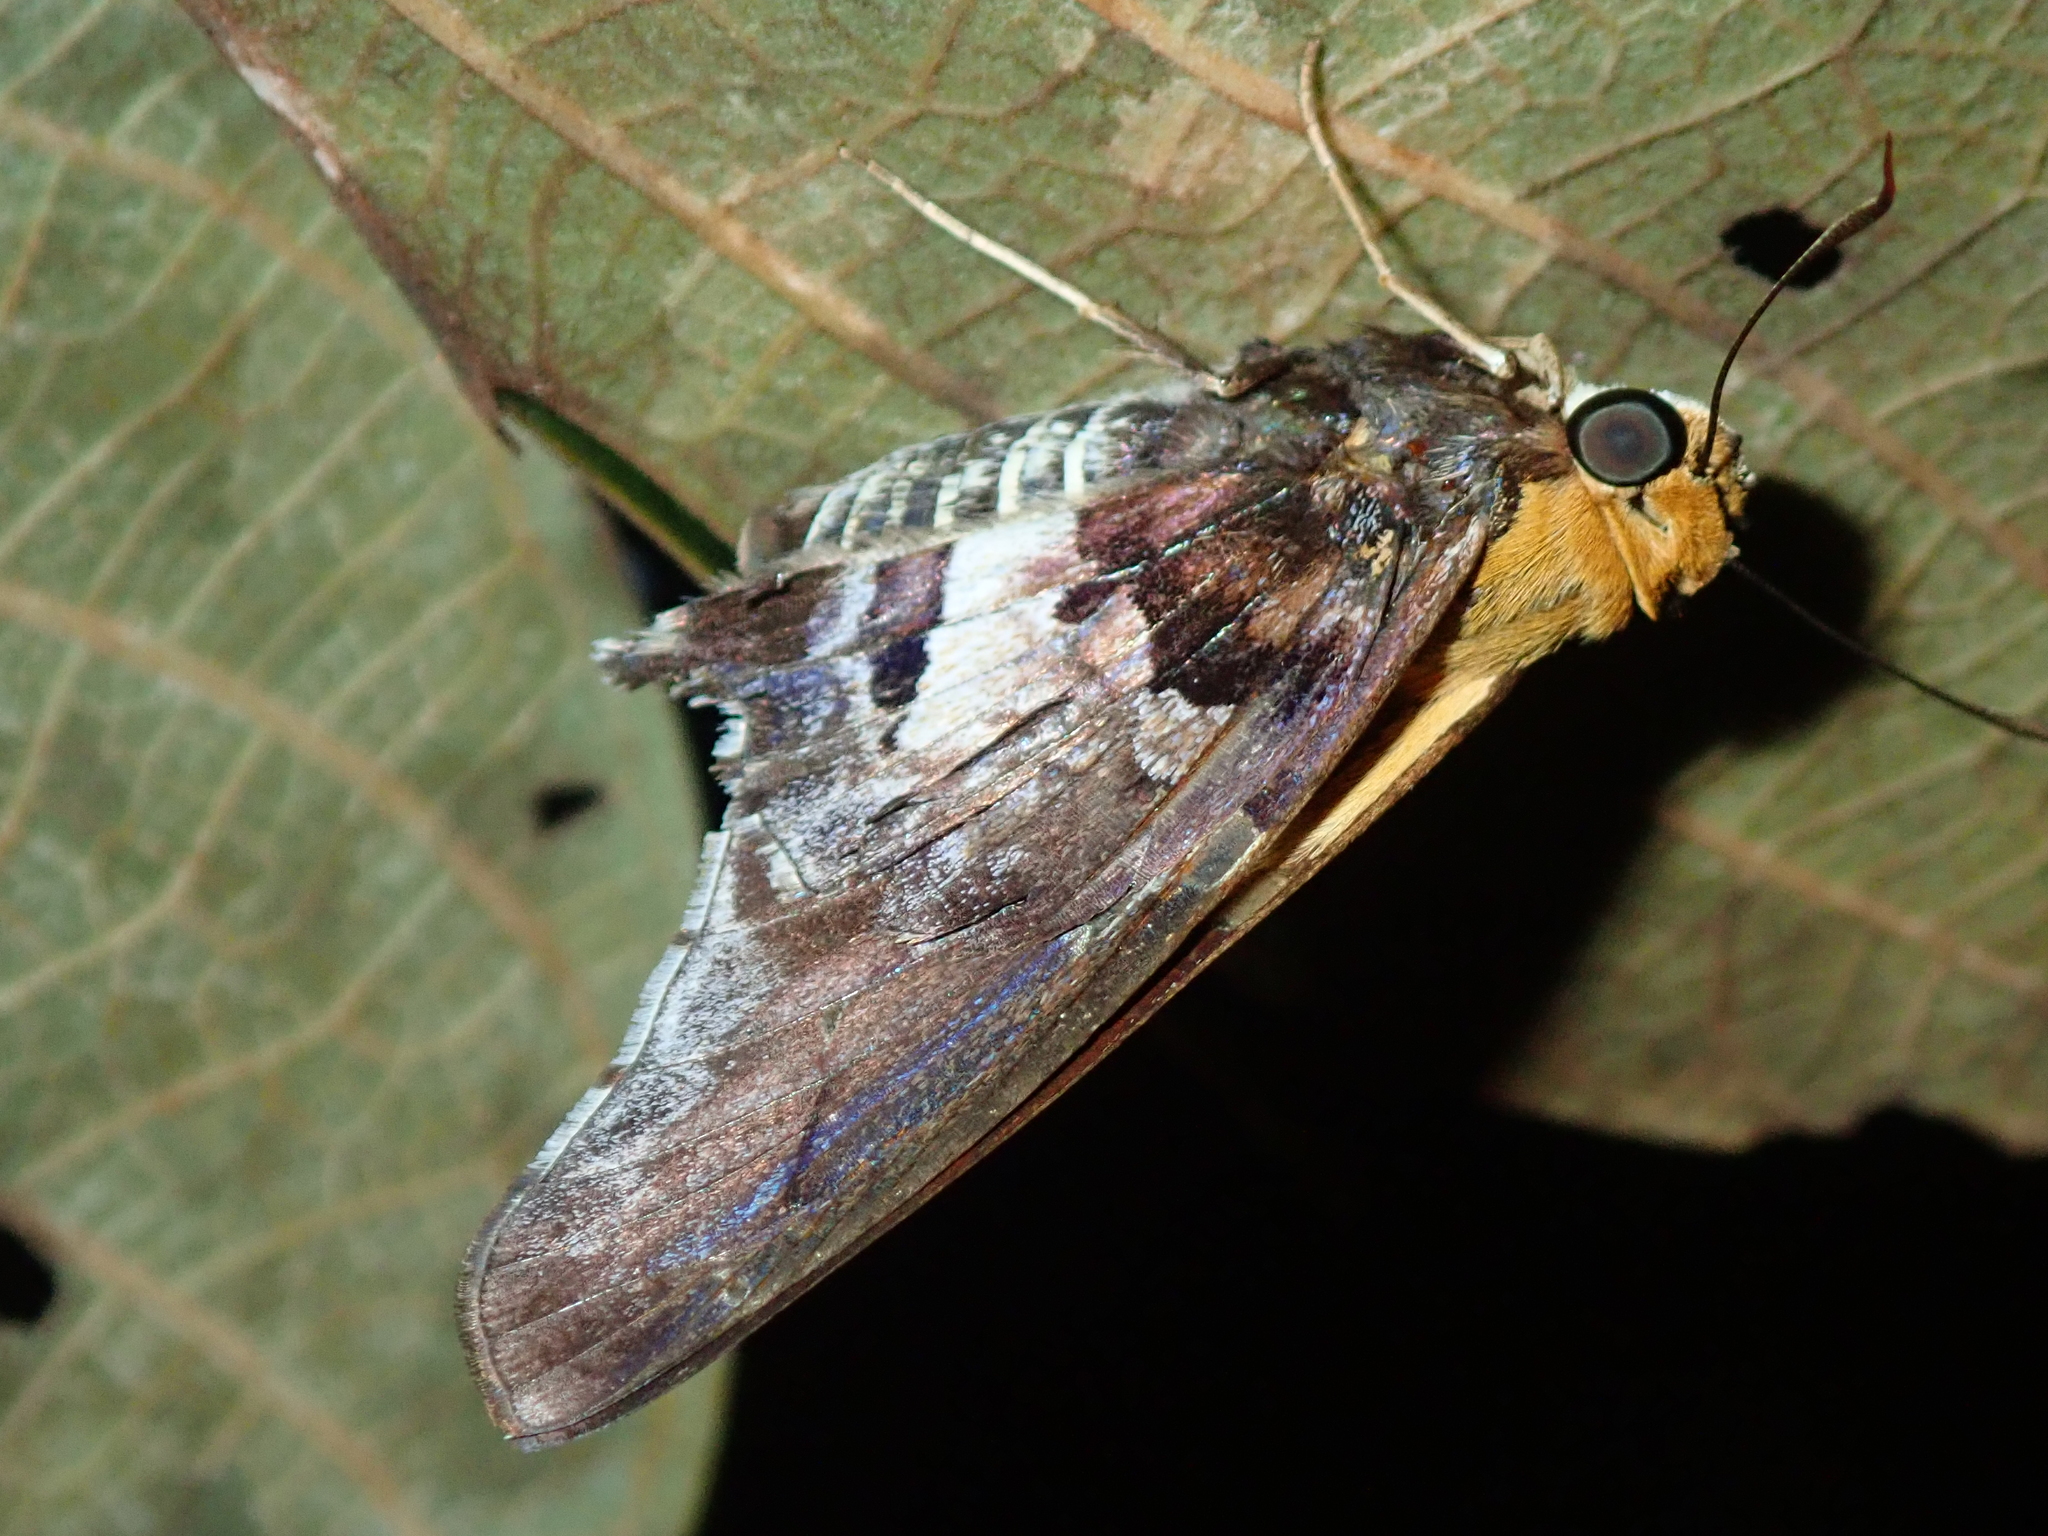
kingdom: Animalia
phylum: Arthropoda
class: Insecta
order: Lepidoptera
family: Hesperiidae
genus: Proteides
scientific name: Proteides mercurius
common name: Mercurial skipper
